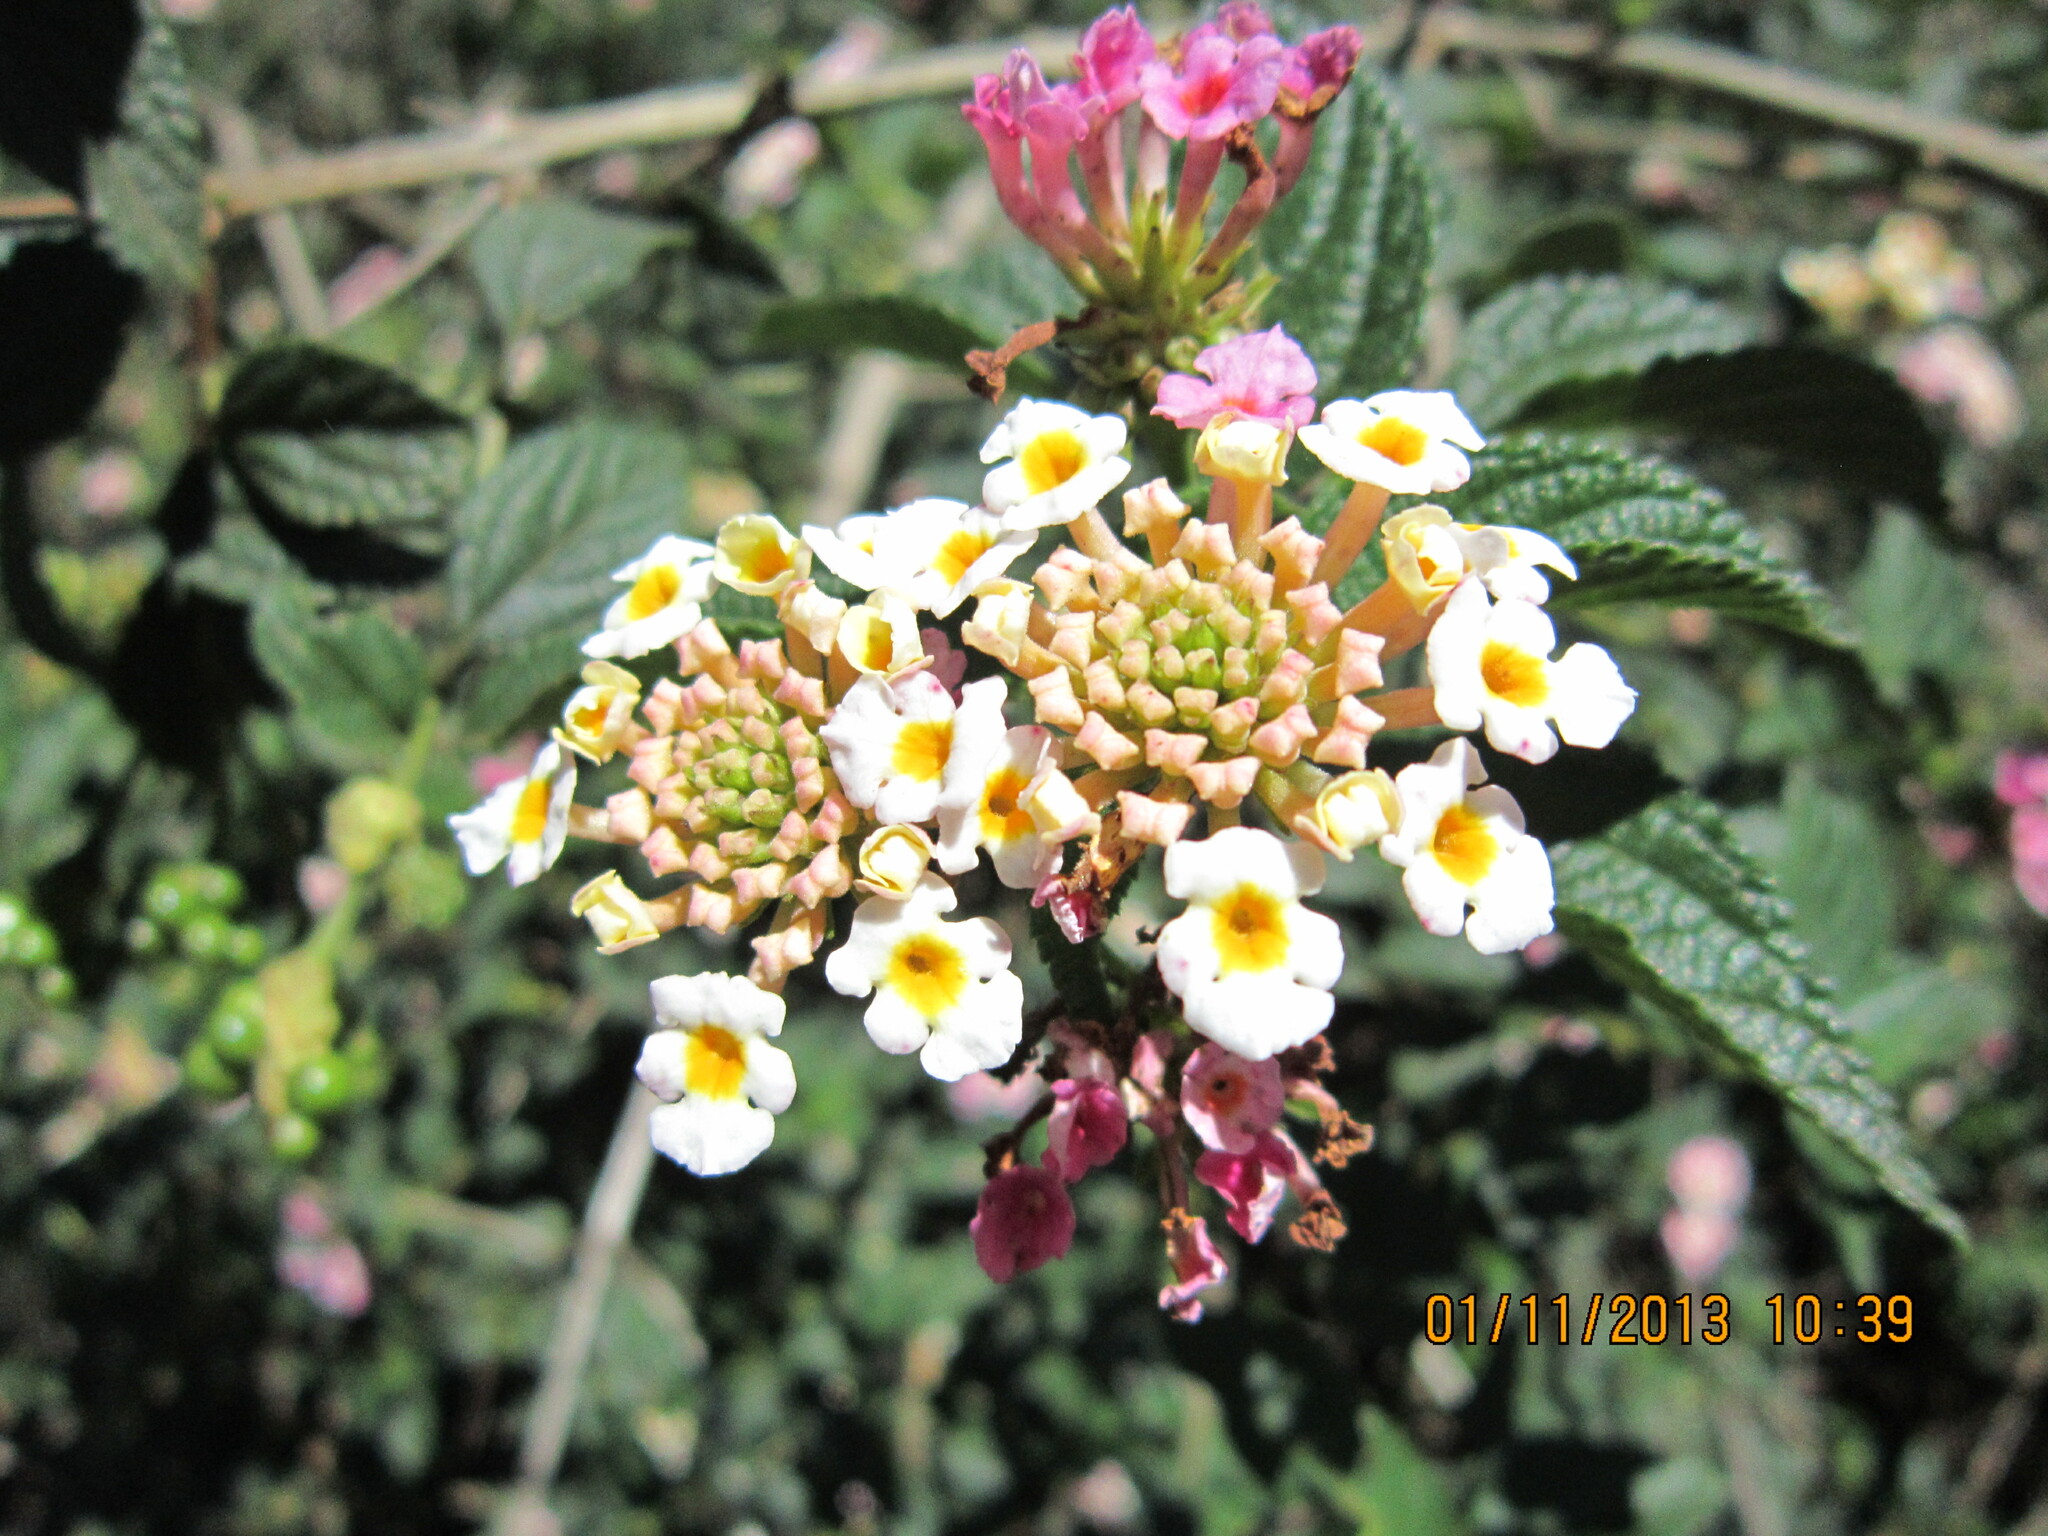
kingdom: Plantae
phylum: Tracheophyta
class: Magnoliopsida
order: Lamiales
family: Verbenaceae
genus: Lantana
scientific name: Lantana camara
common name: Lantana
